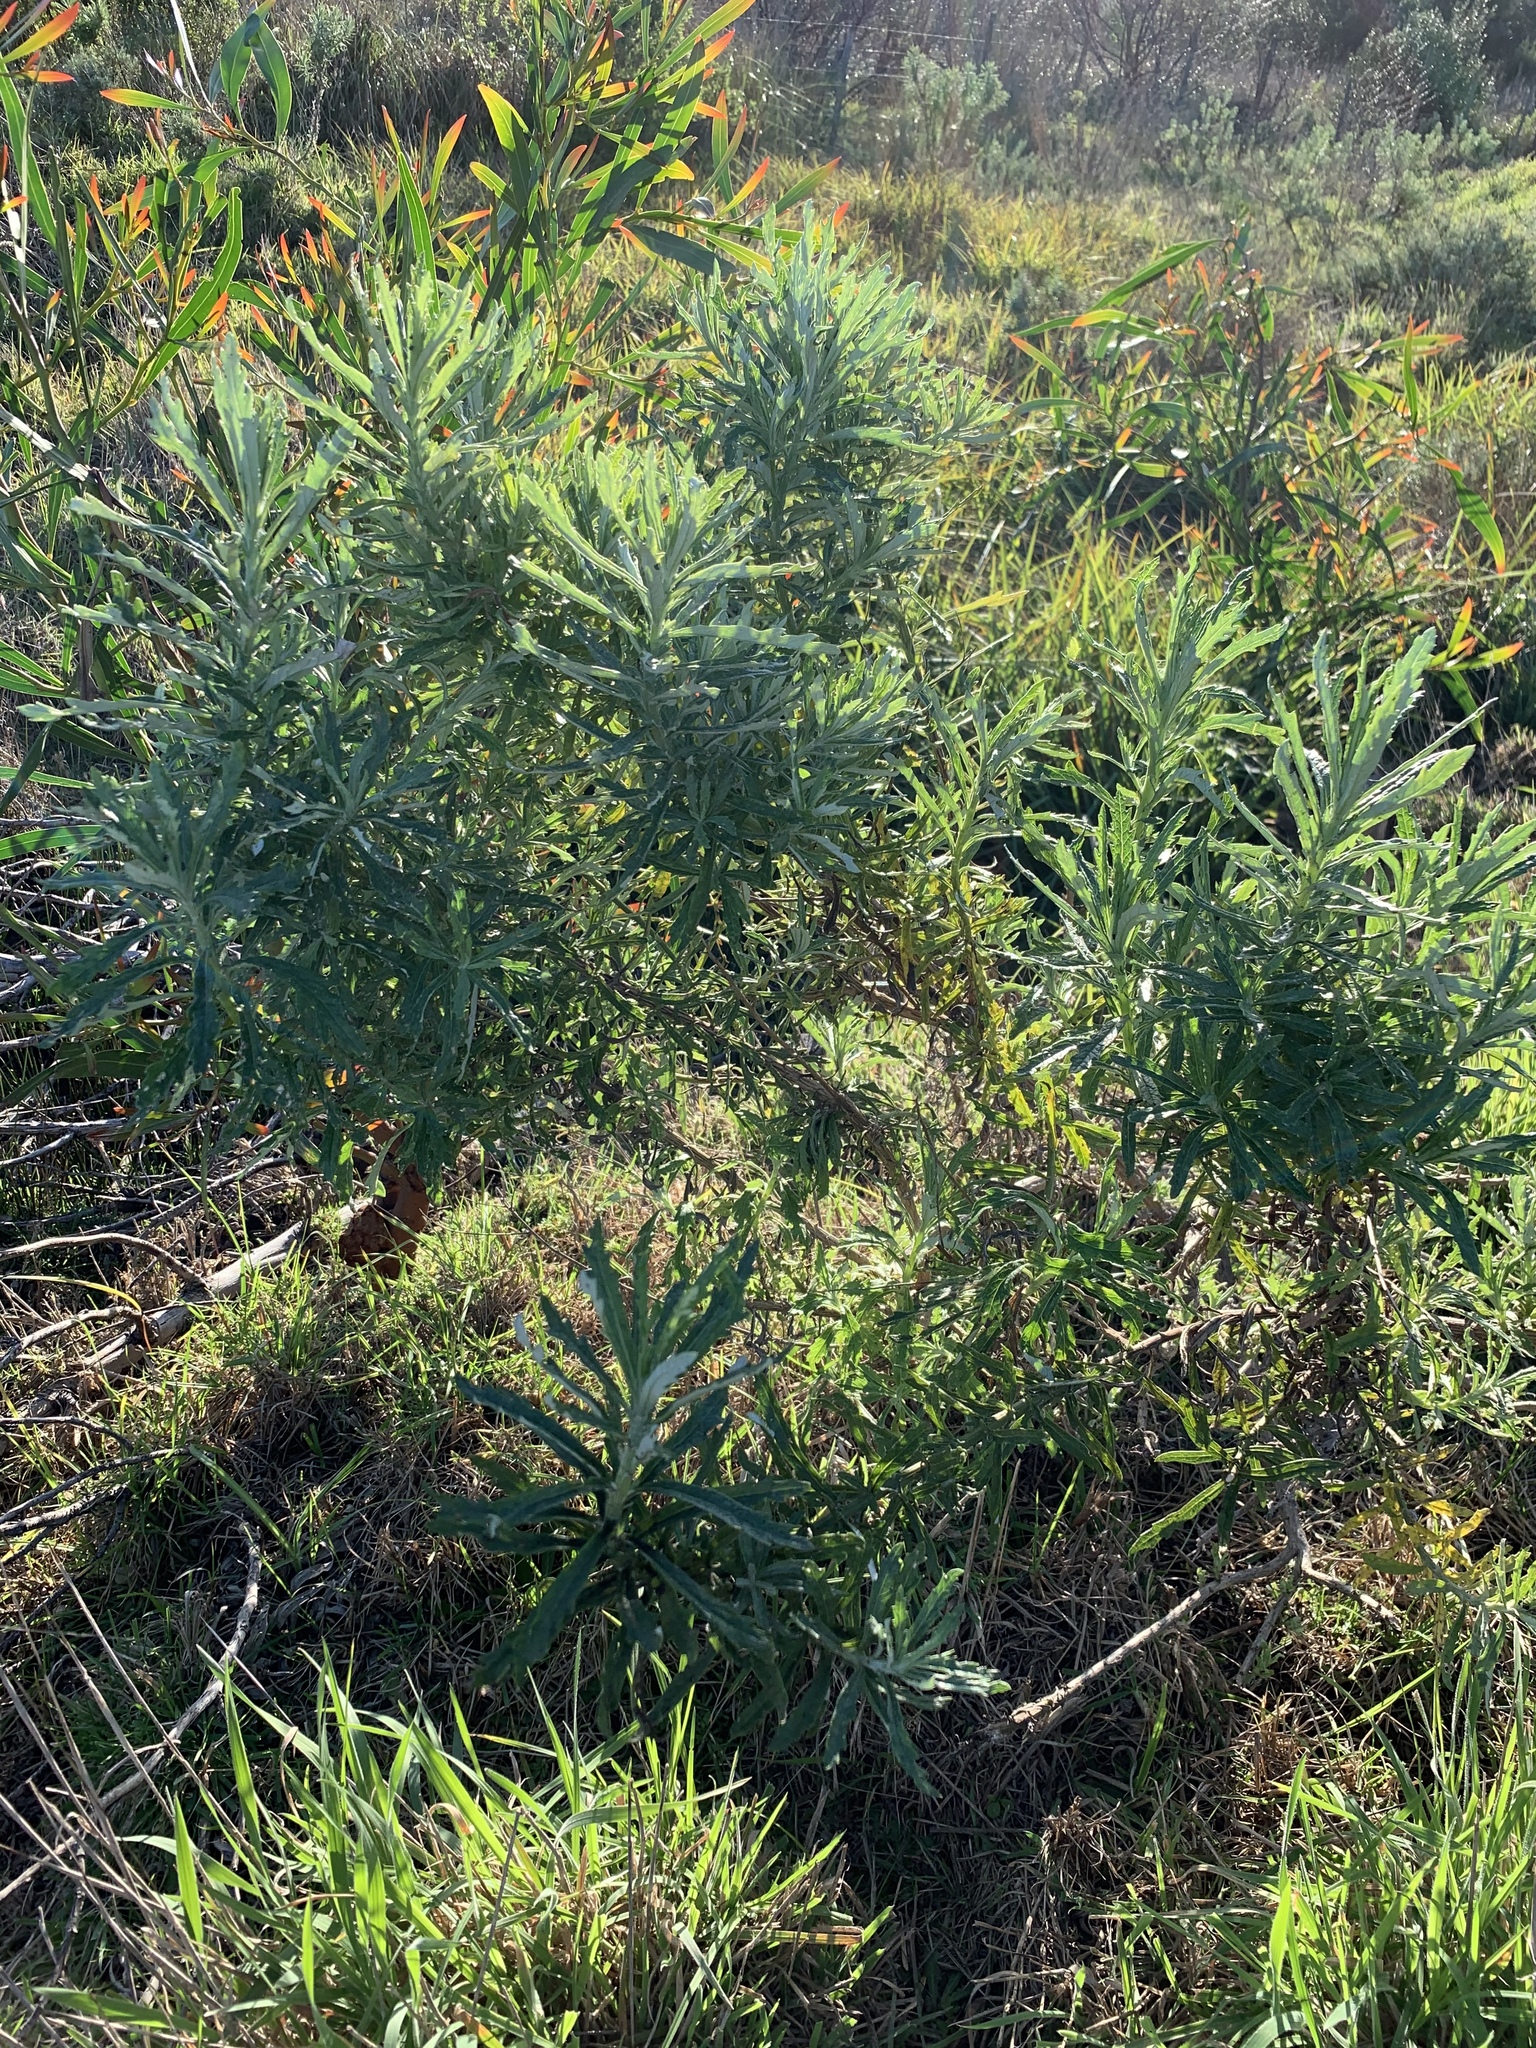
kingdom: Plantae
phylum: Tracheophyta
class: Magnoliopsida
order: Asterales
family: Asteraceae
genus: Senecio
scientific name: Senecio pterophorus
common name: Shoddy ragwort
